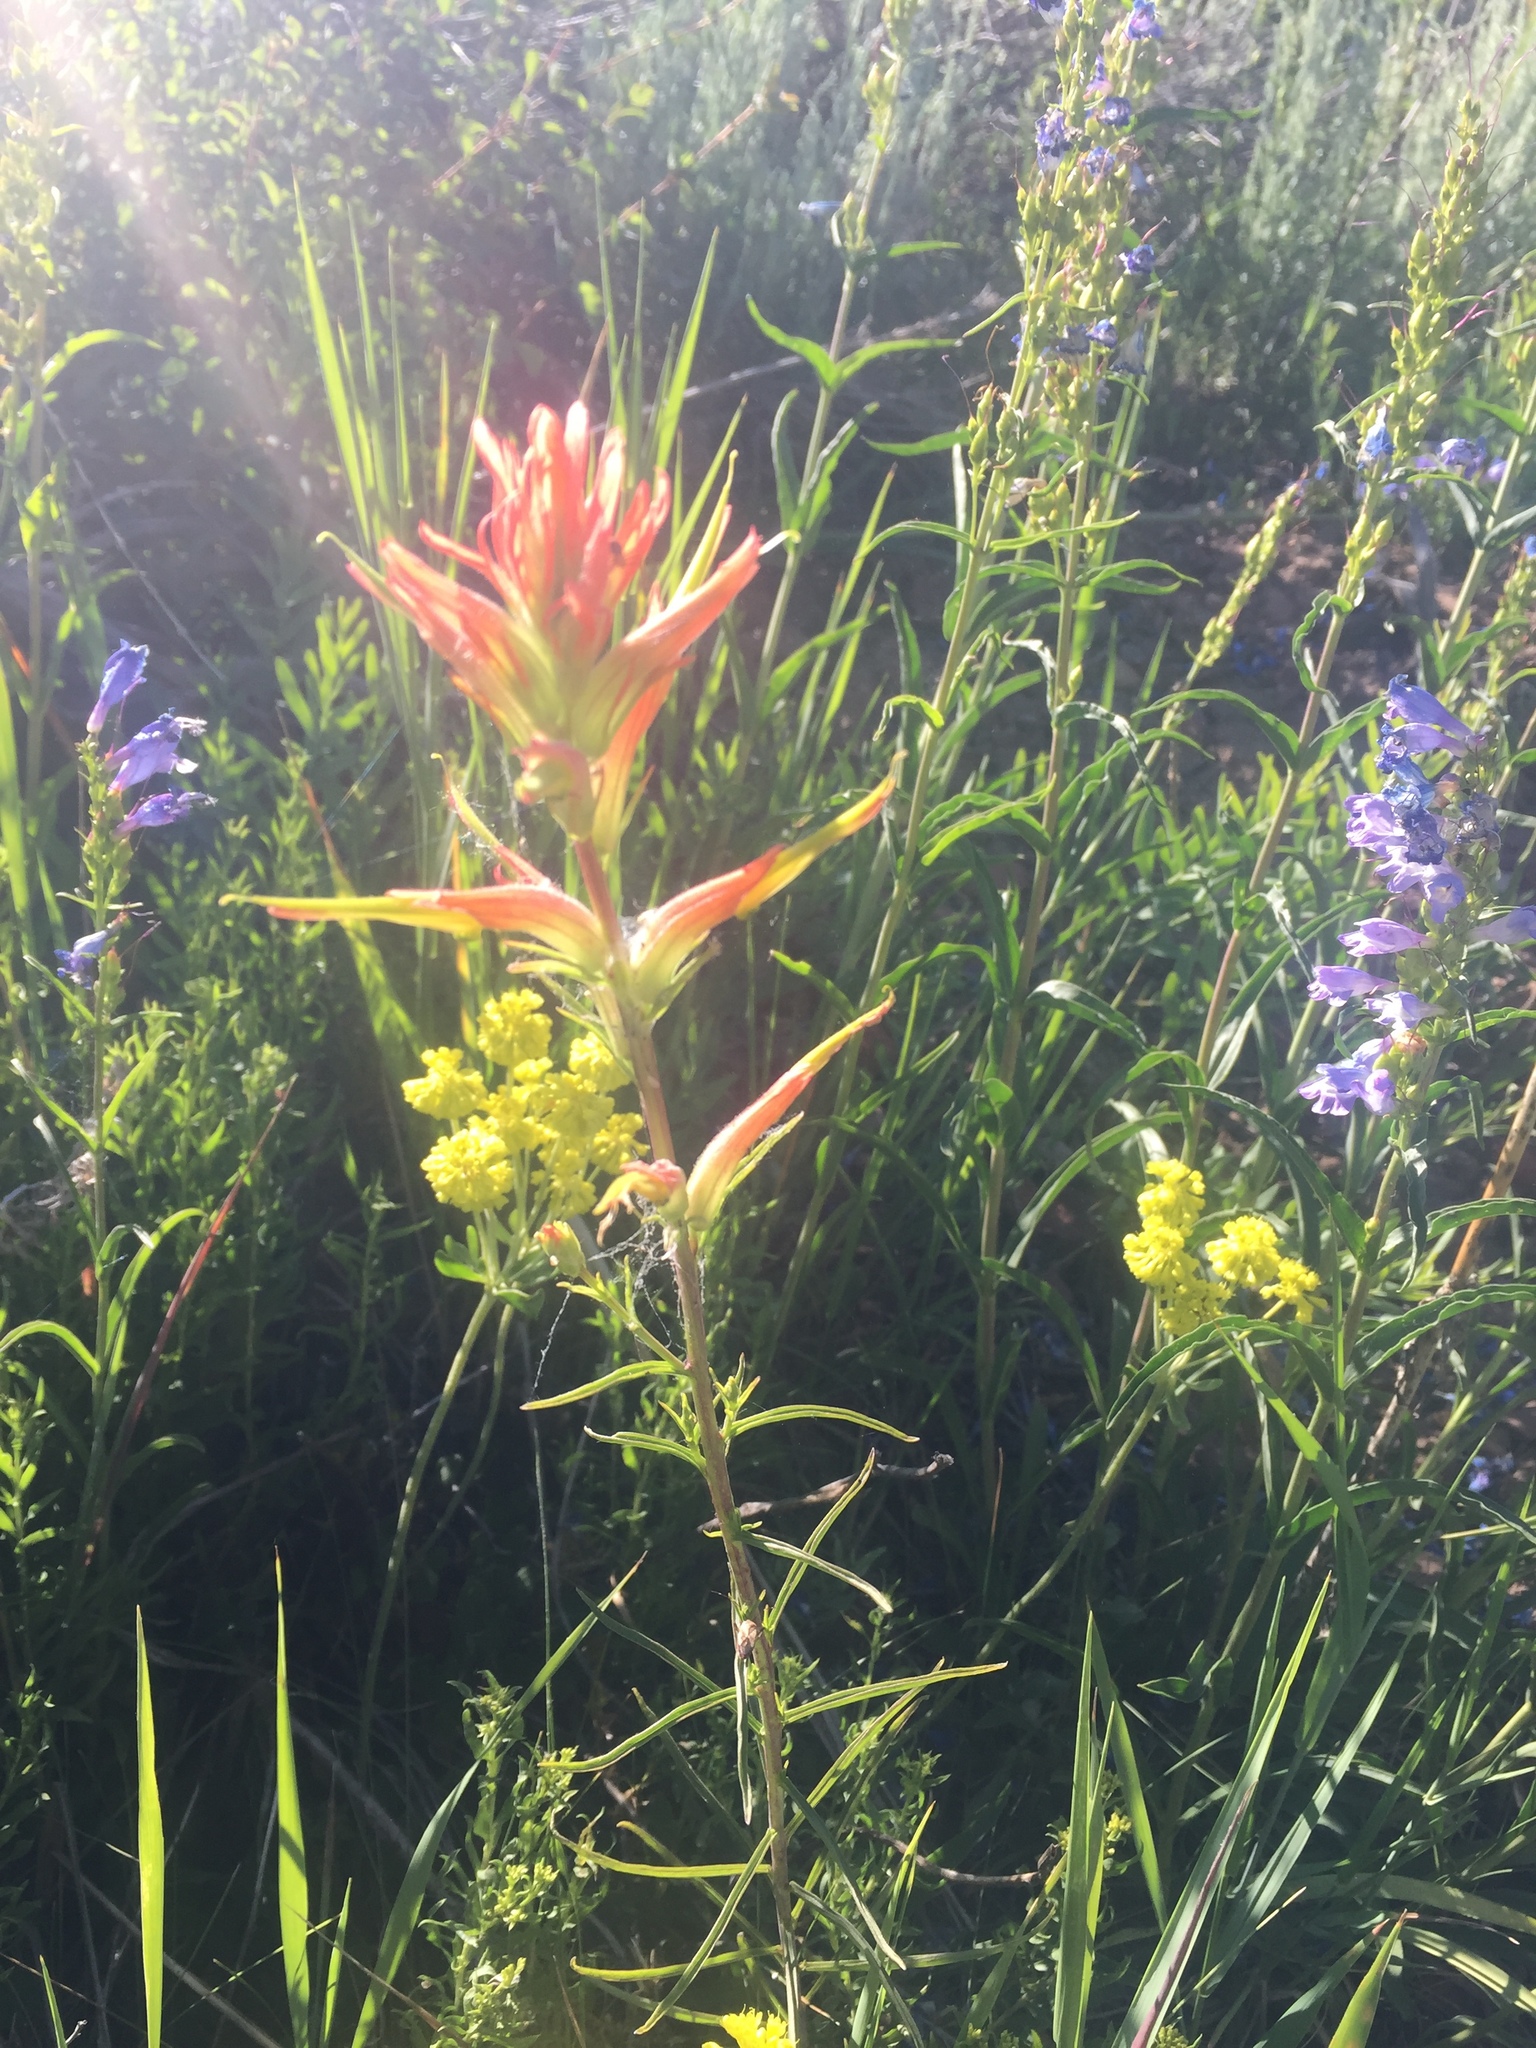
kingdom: Plantae
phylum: Tracheophyta
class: Magnoliopsida
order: Lamiales
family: Orobanchaceae
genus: Castilleja
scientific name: Castilleja linariifolia
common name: Wyoming paintbrush
